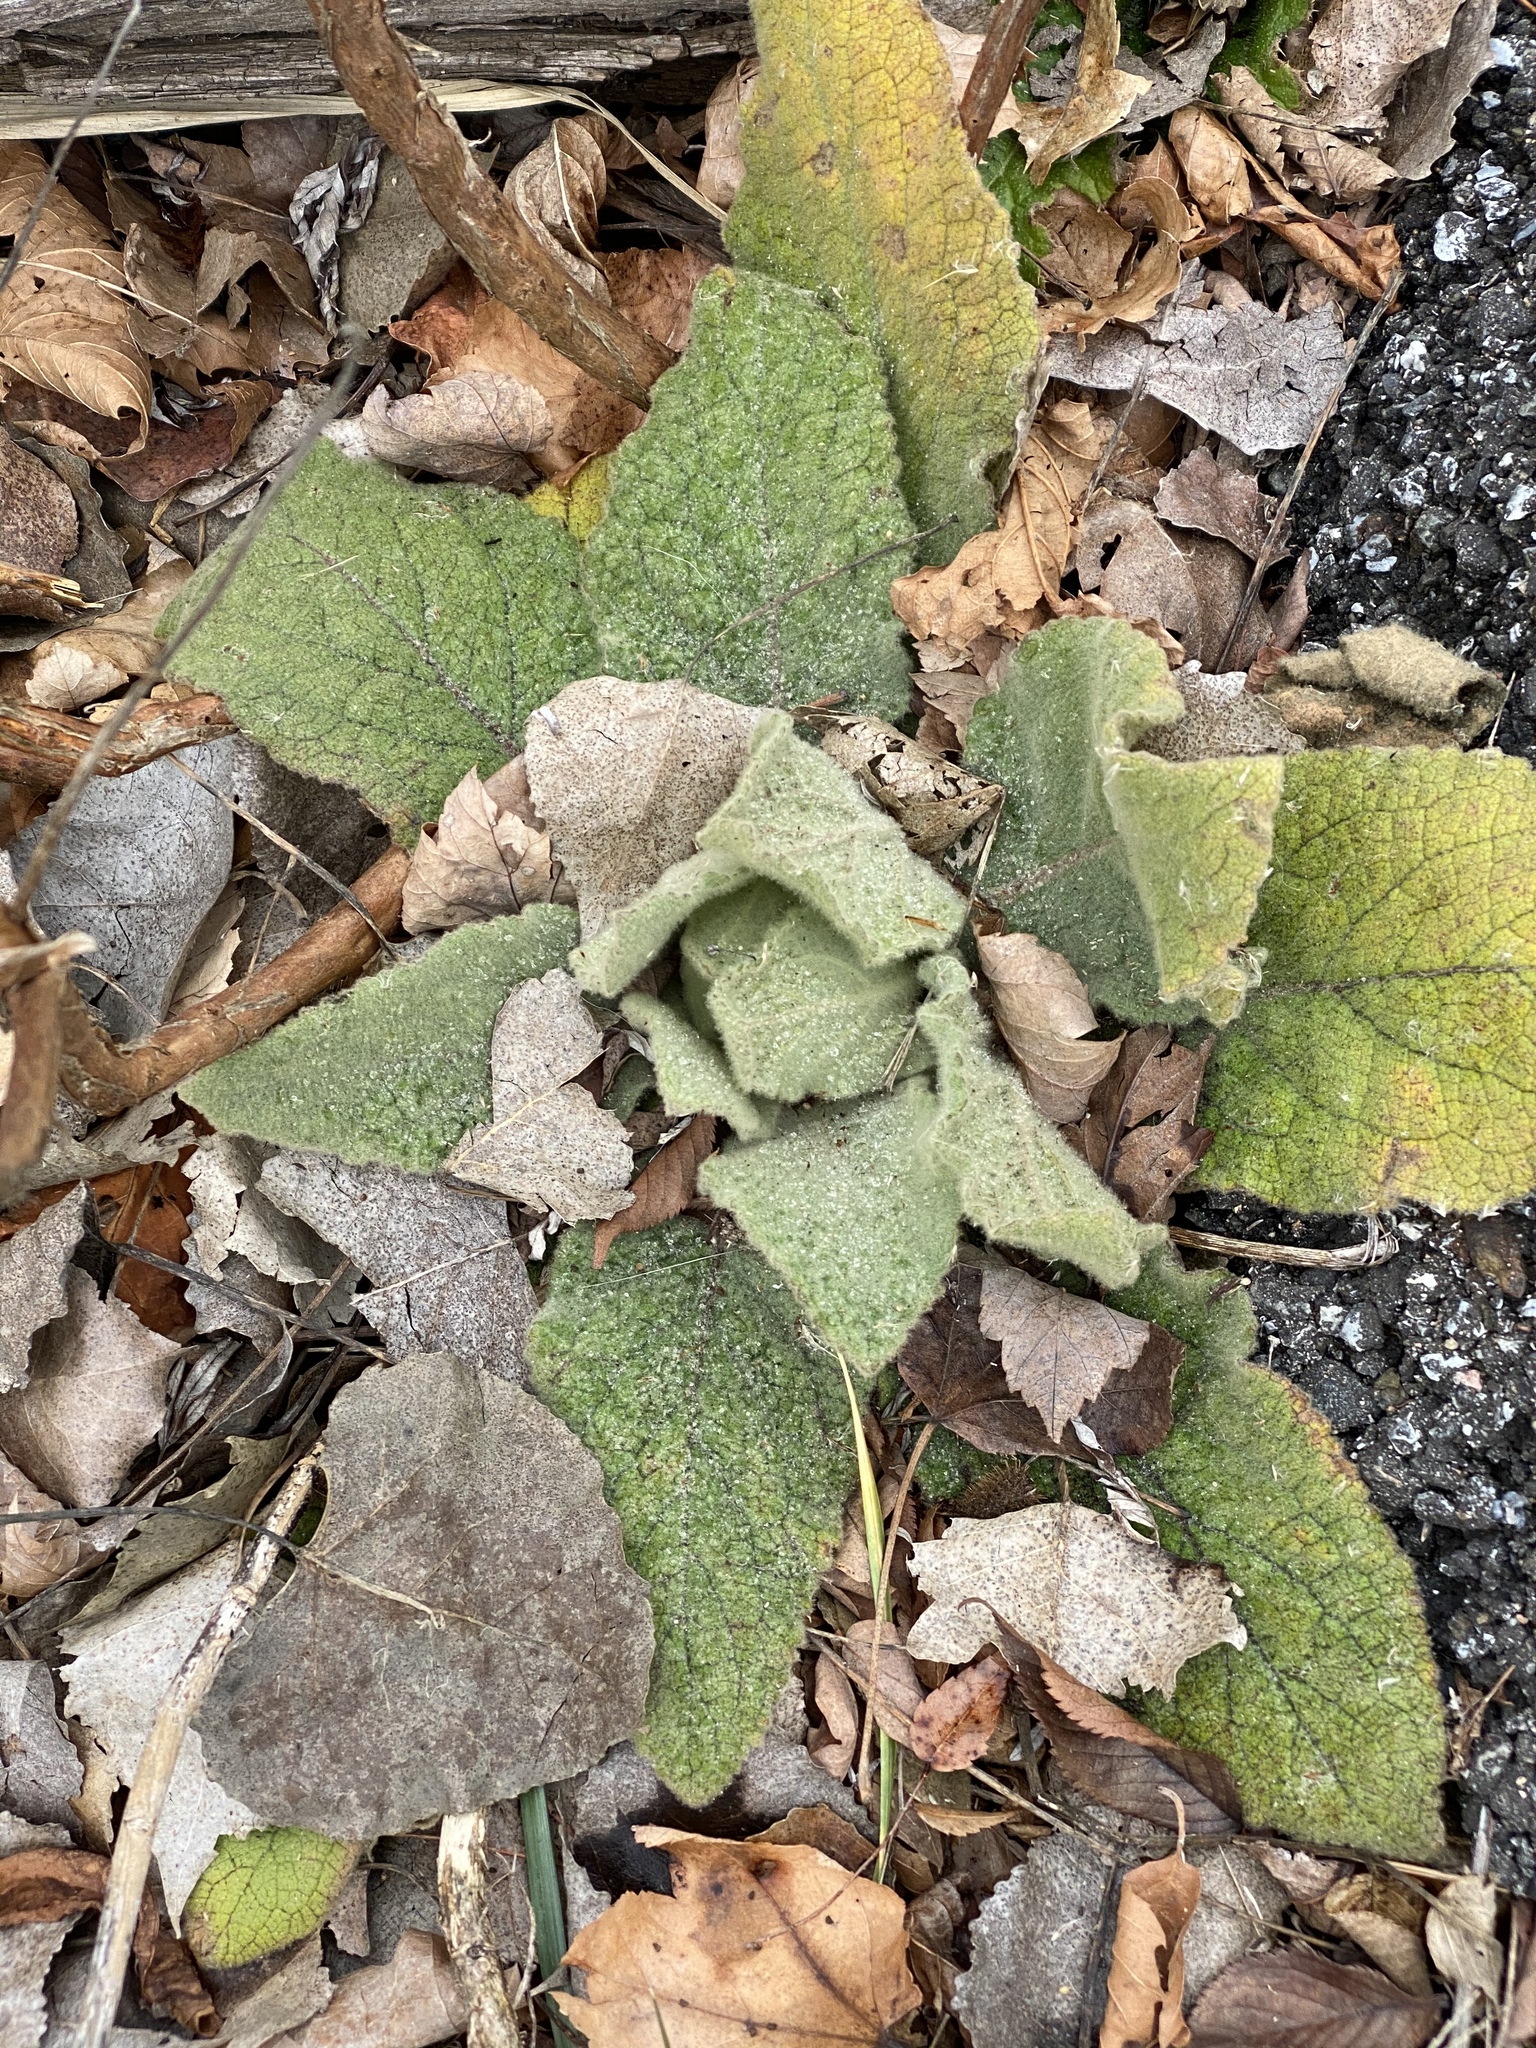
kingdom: Plantae
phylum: Tracheophyta
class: Magnoliopsida
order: Lamiales
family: Scrophulariaceae
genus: Verbascum
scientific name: Verbascum thapsus
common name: Common mullein
